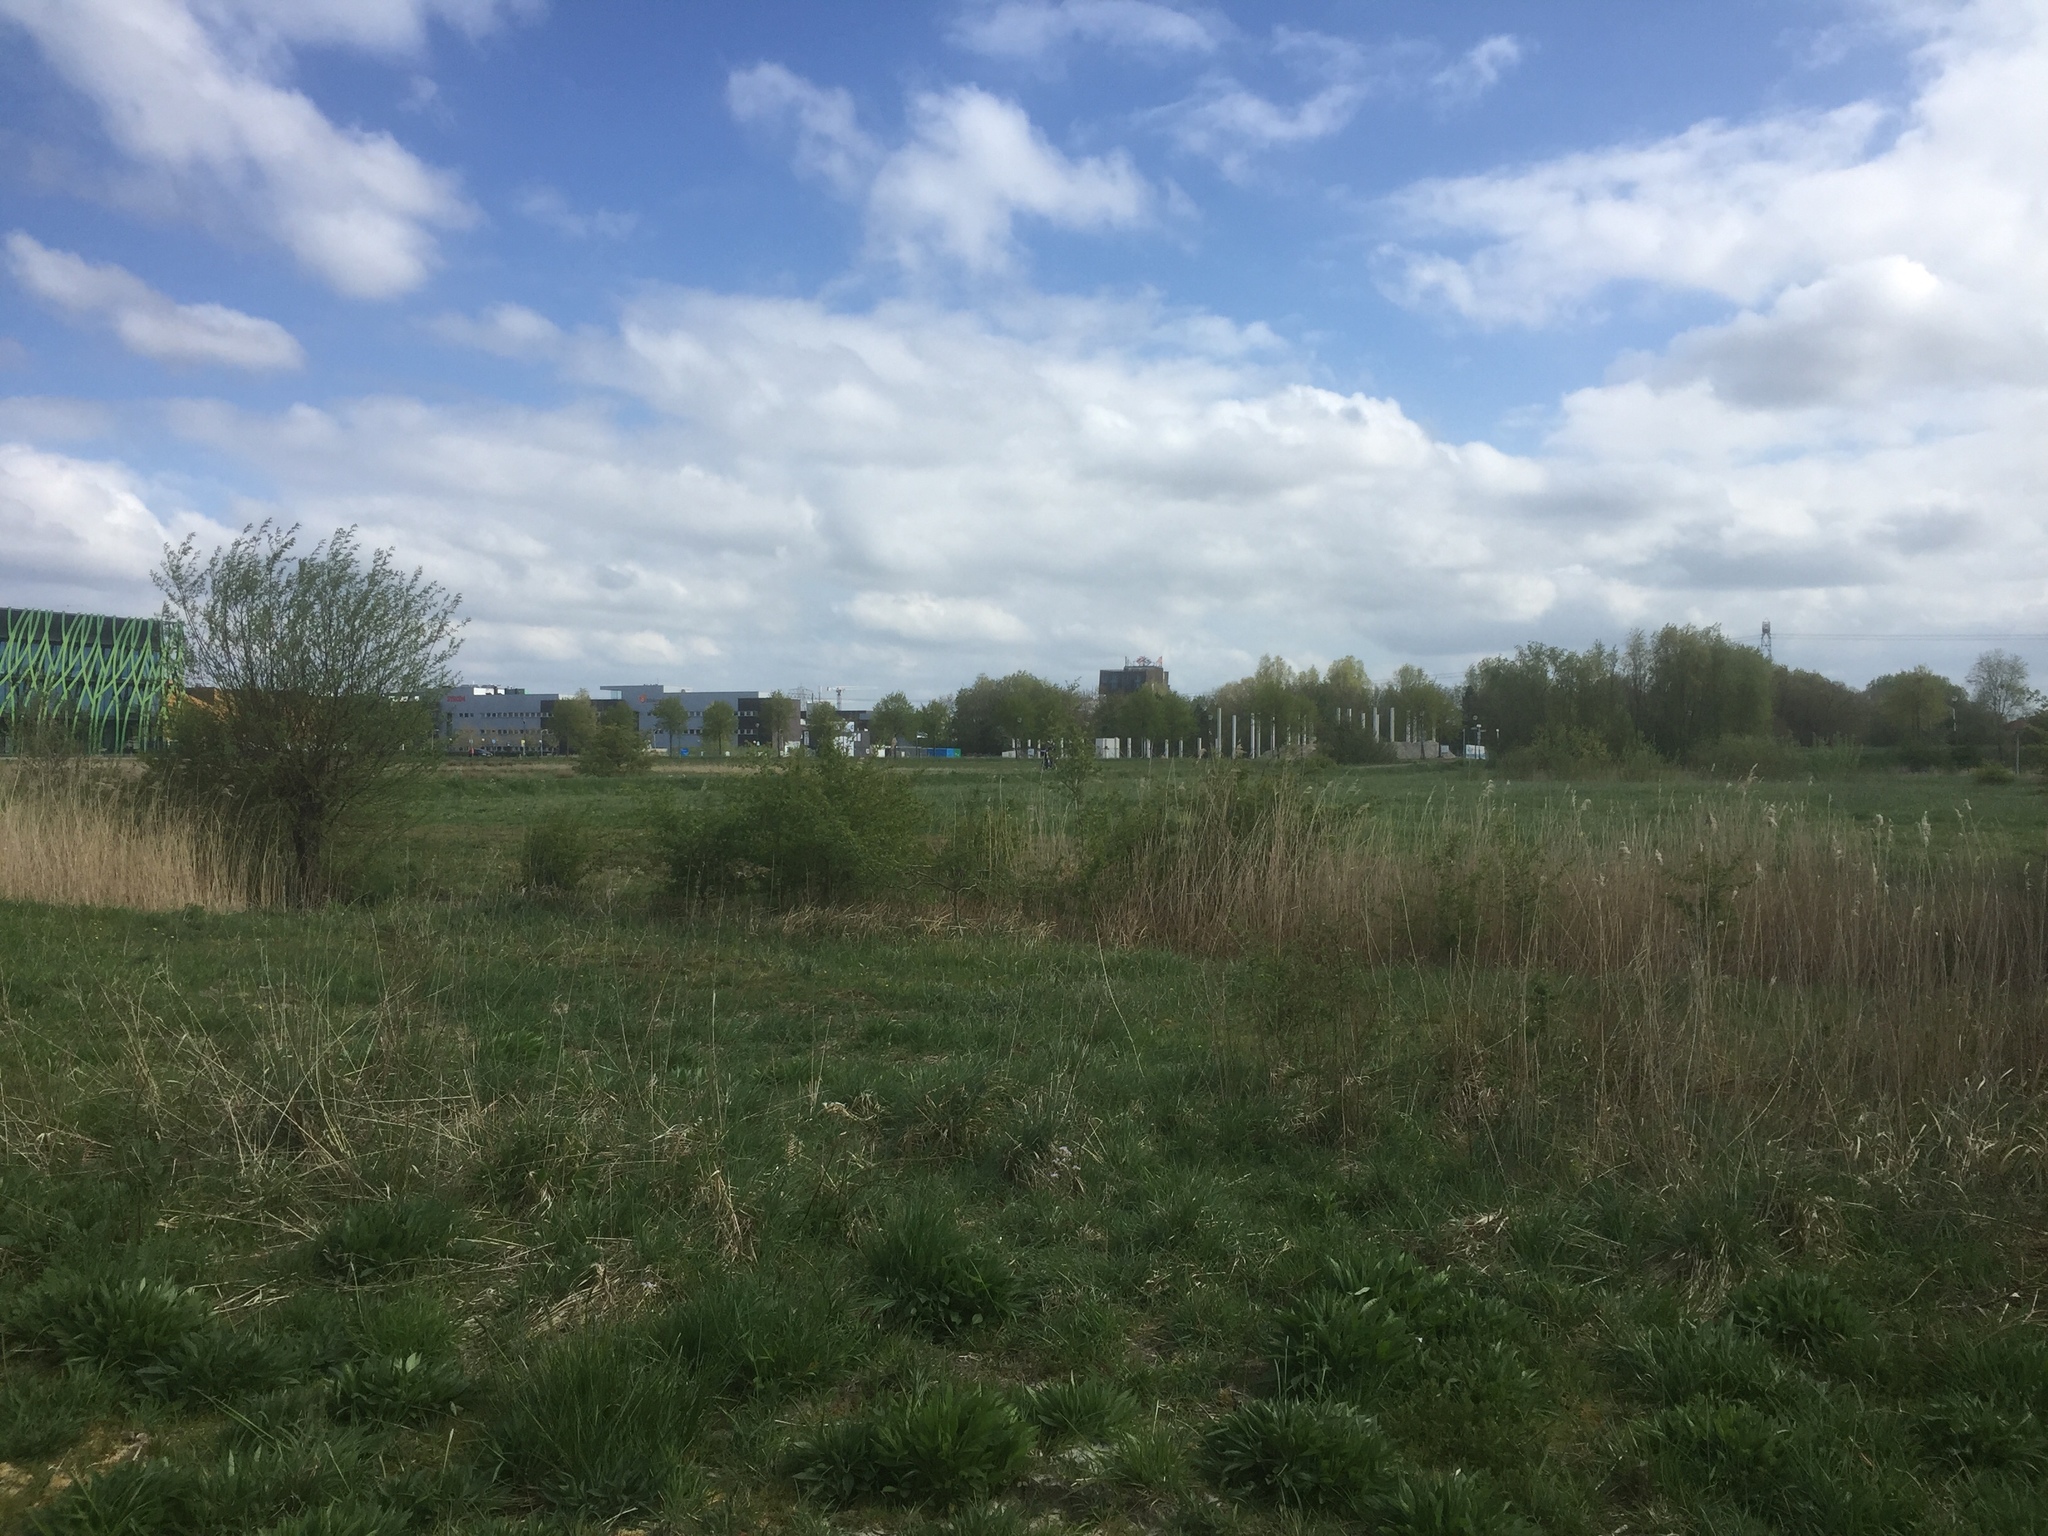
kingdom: Plantae
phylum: Tracheophyta
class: Liliopsida
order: Poales
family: Poaceae
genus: Phragmites
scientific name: Phragmites australis
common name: Common reed
